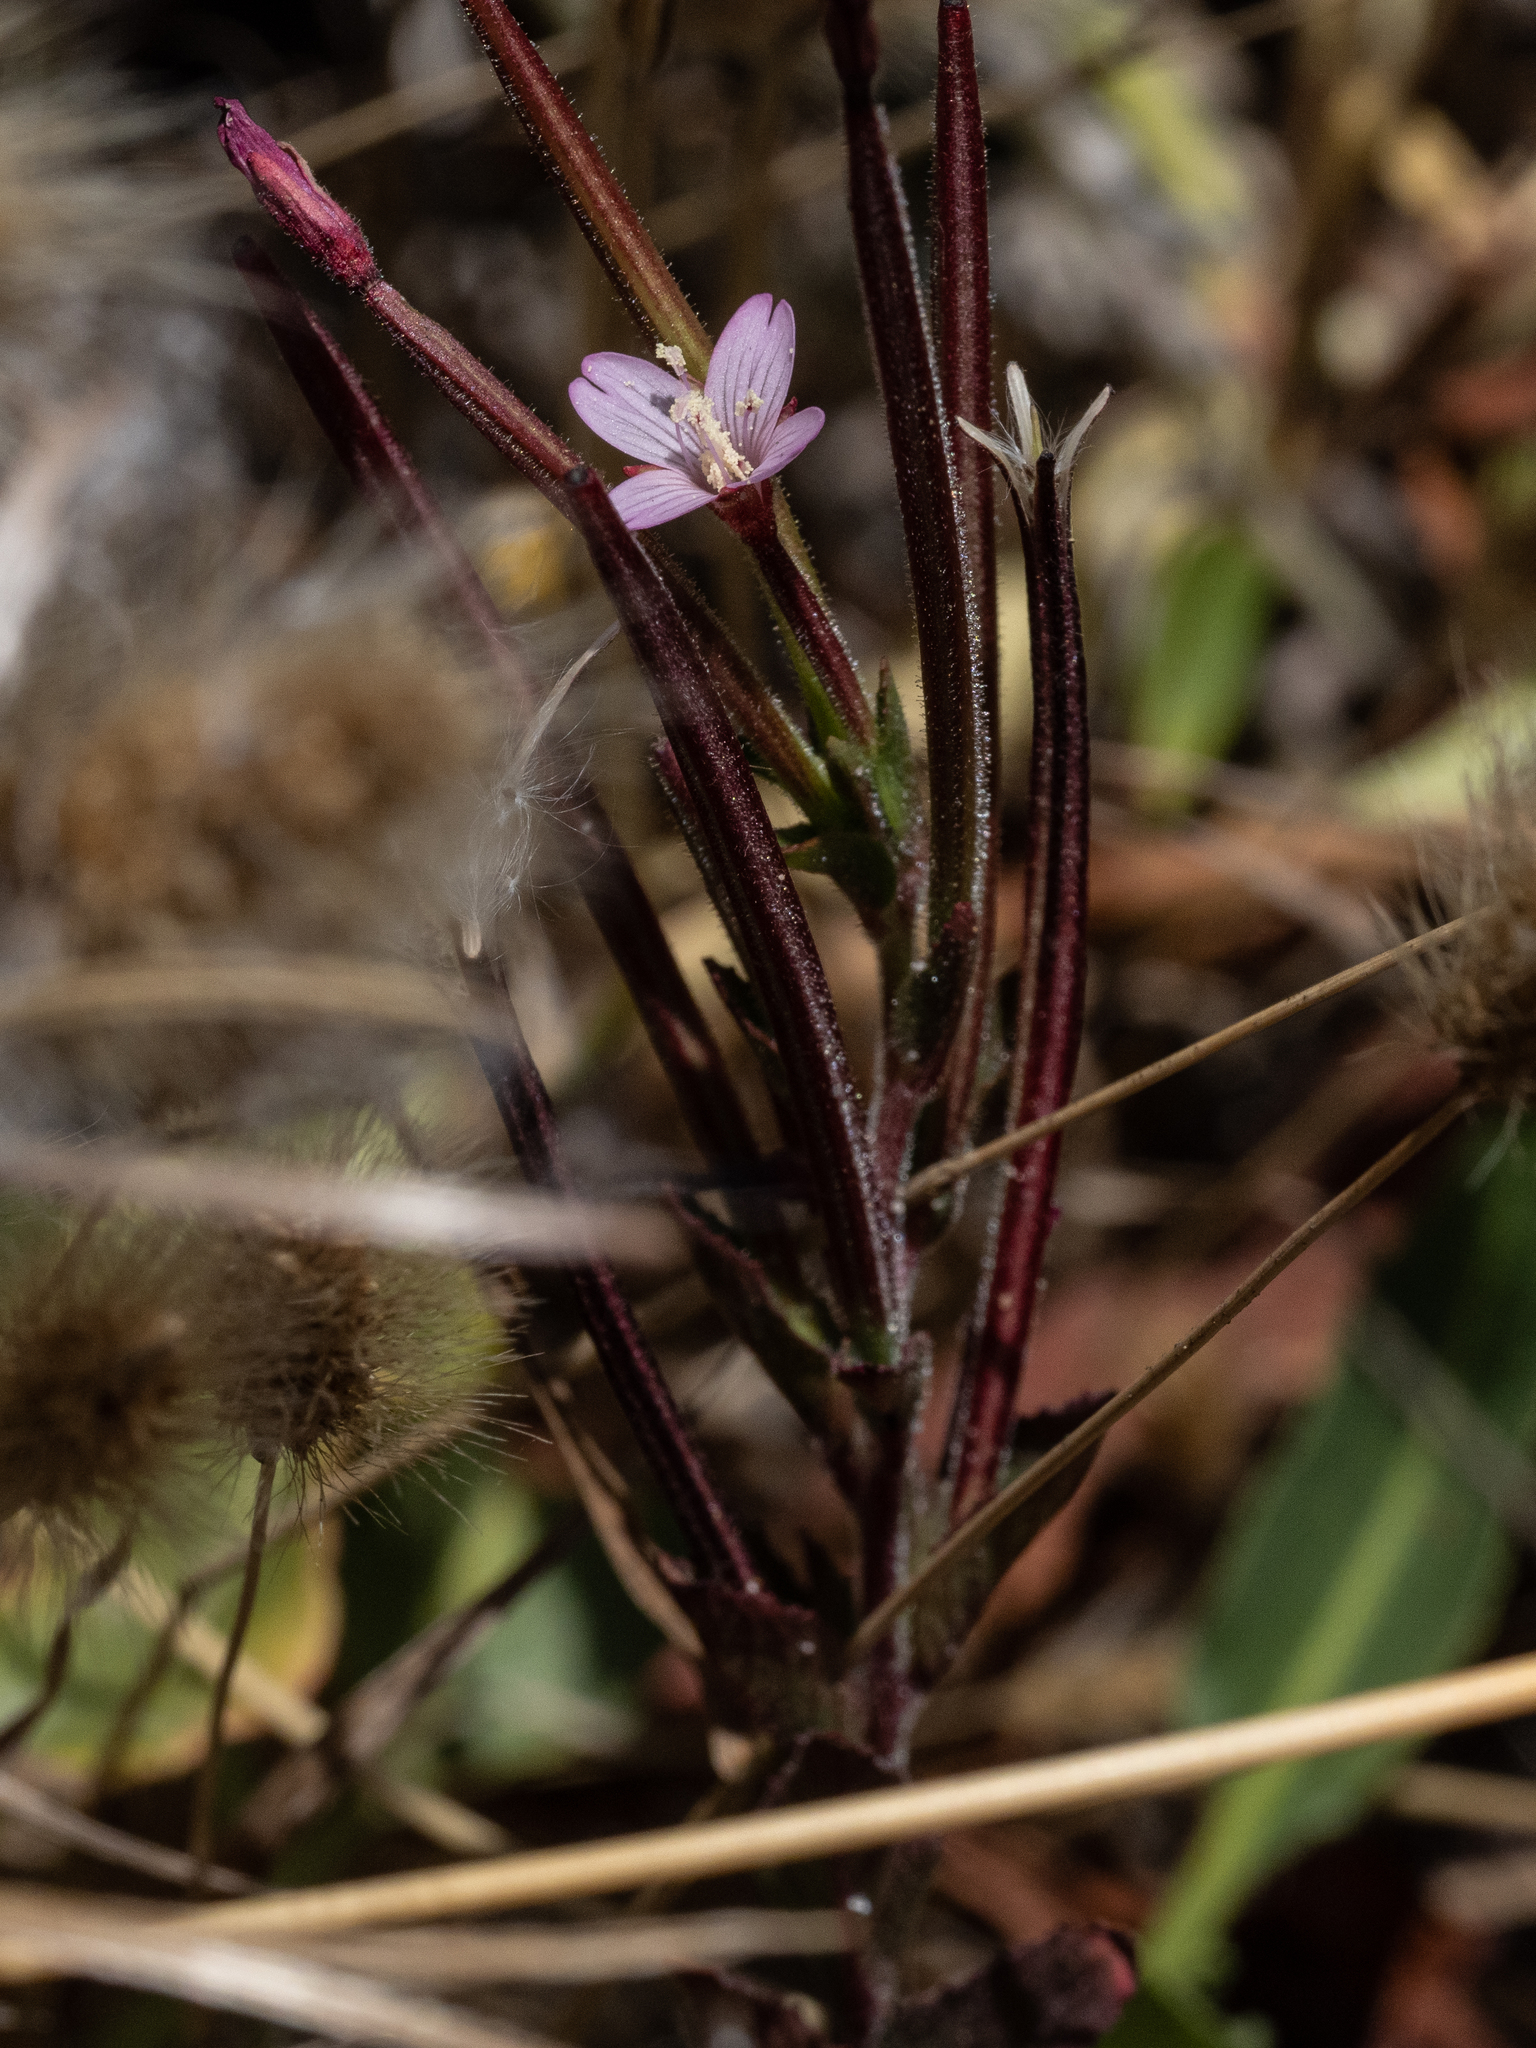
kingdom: Plantae
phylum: Tracheophyta
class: Magnoliopsida
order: Myrtales
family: Onagraceae
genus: Epilobium
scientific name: Epilobium ciliatum
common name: American willowherb
